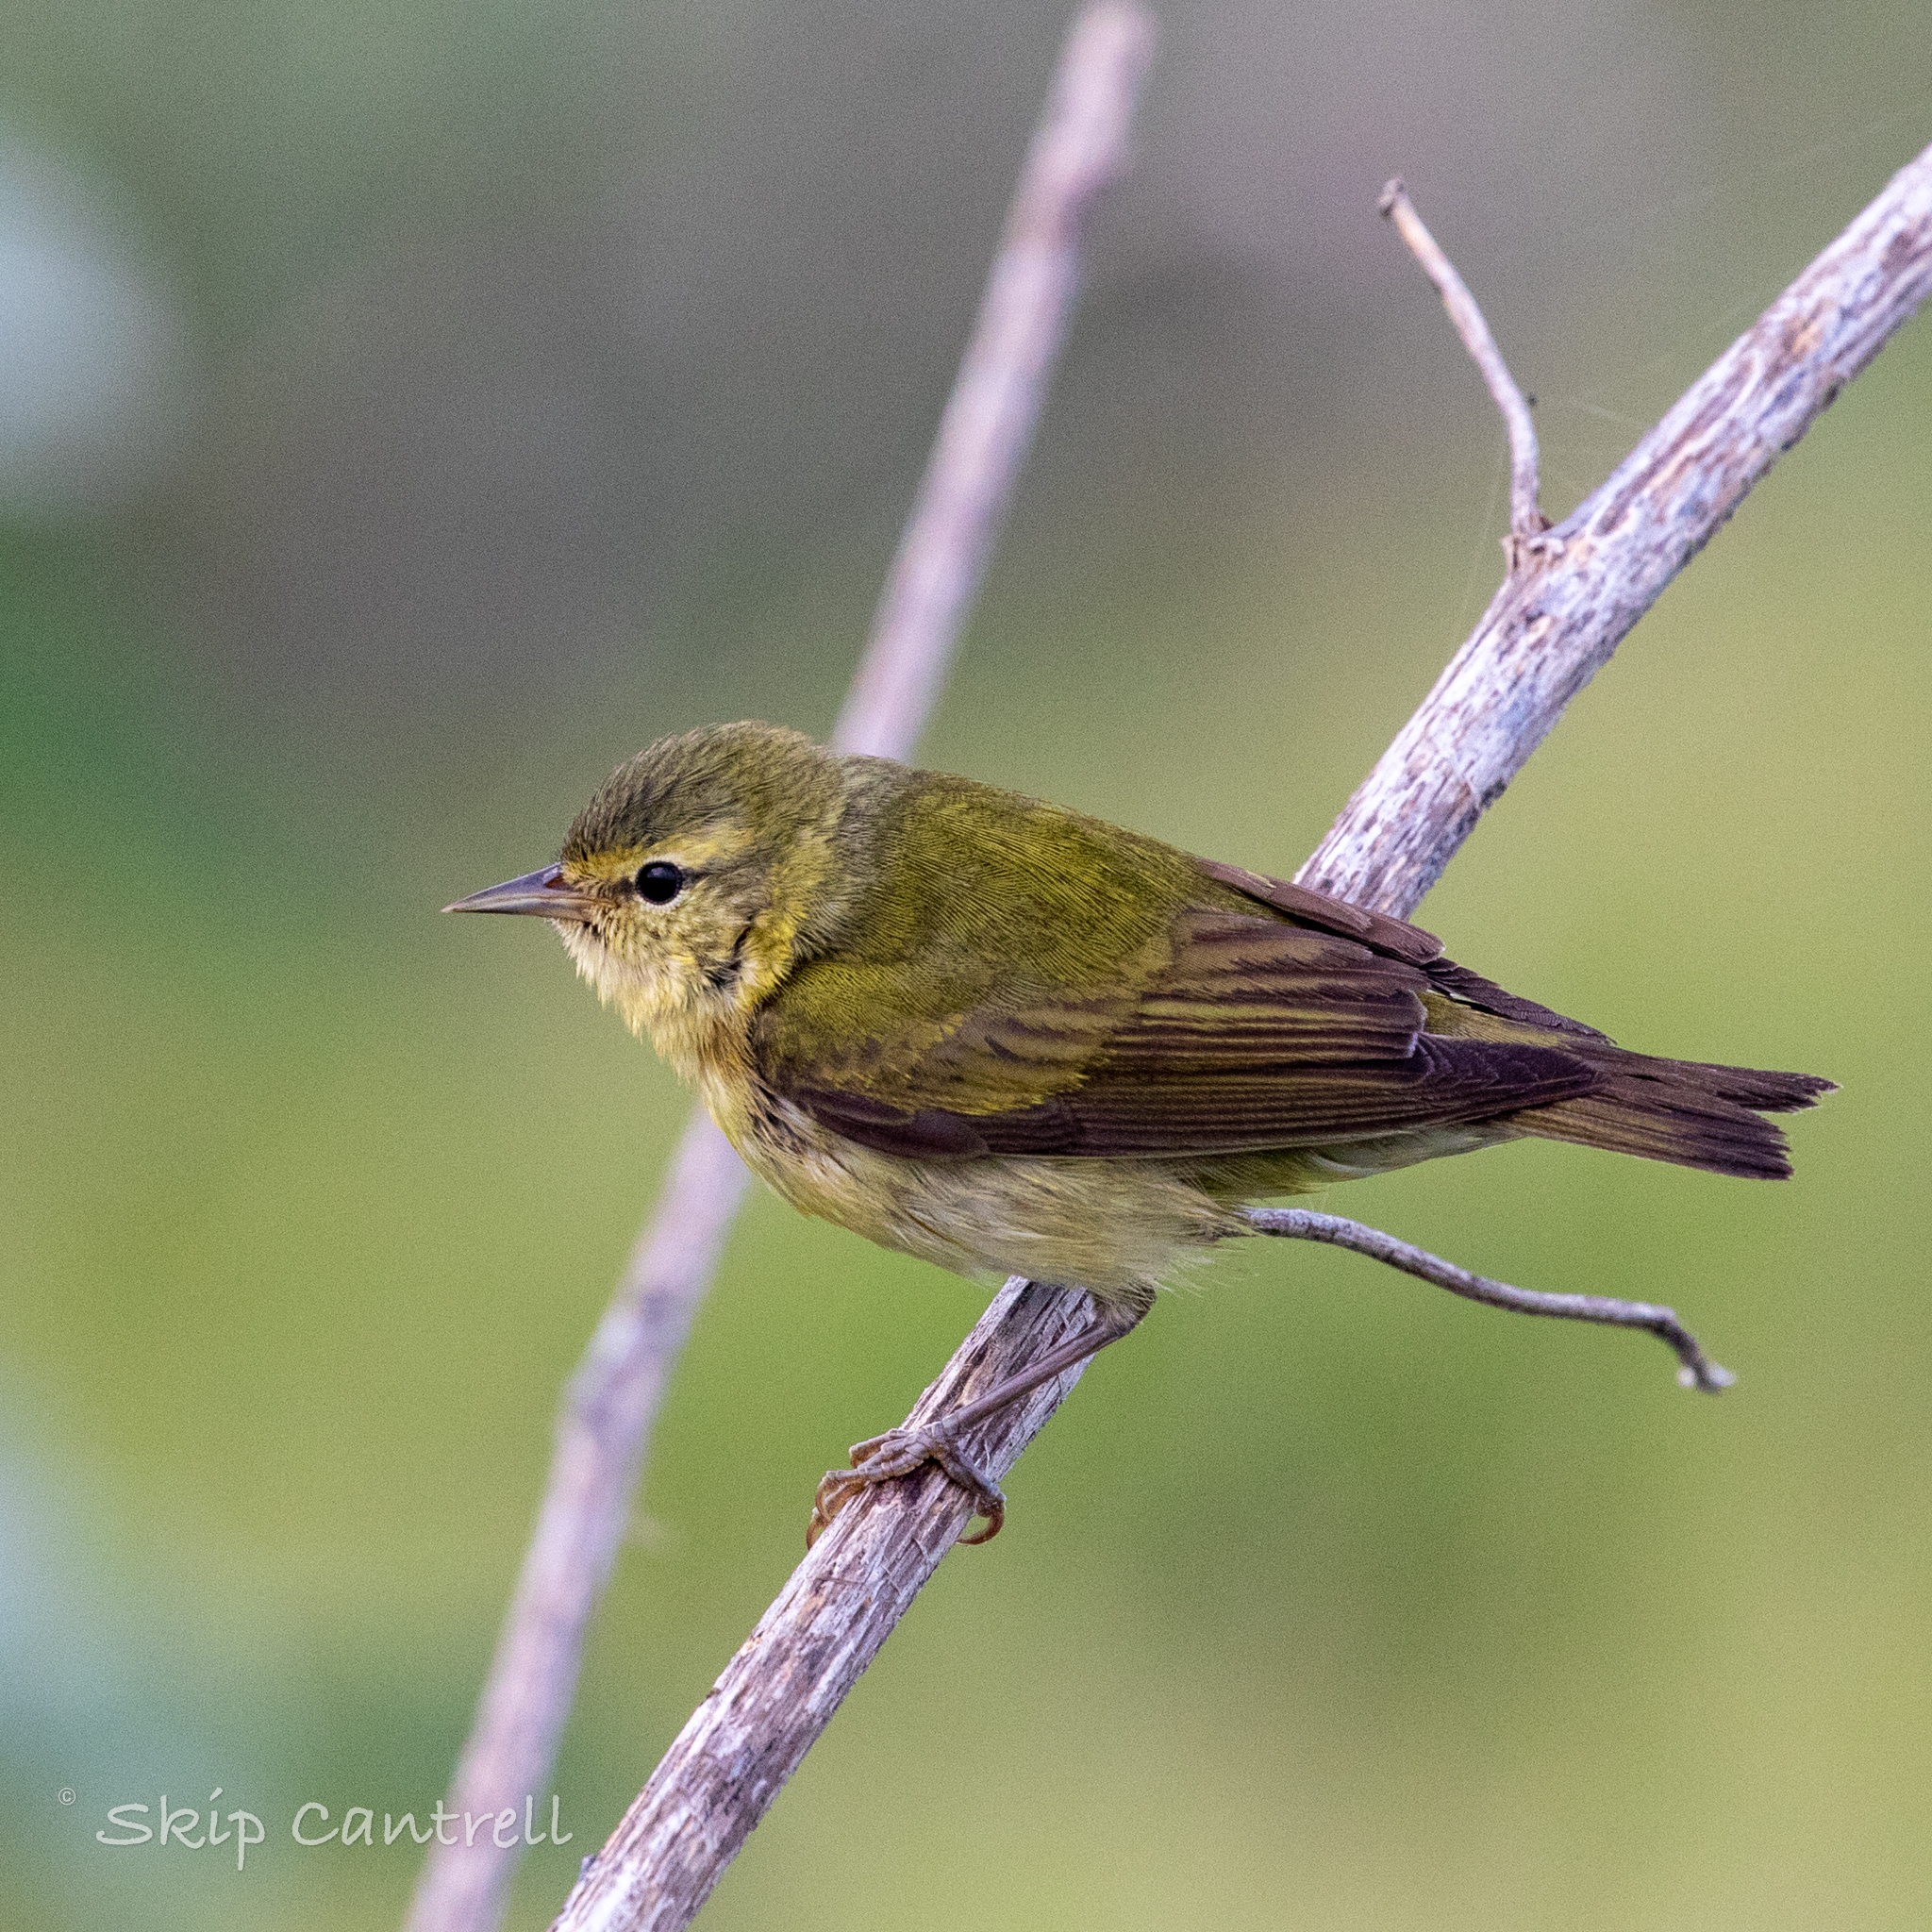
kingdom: Animalia
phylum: Chordata
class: Aves
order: Passeriformes
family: Parulidae
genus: Leiothlypis
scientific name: Leiothlypis peregrina
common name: Tennessee warbler
